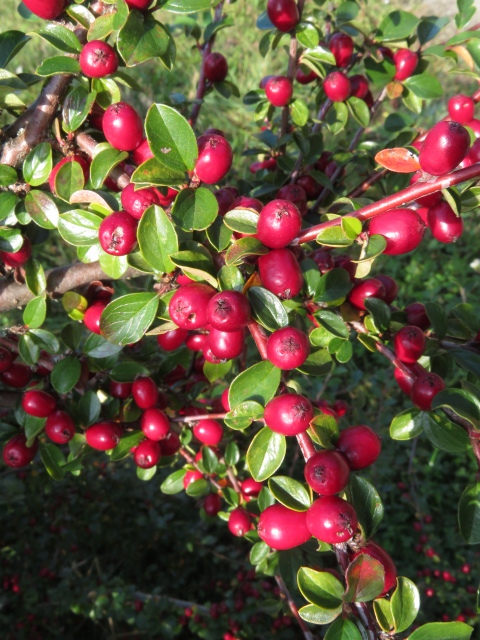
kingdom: Plantae
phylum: Tracheophyta
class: Magnoliopsida
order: Rosales
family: Rosaceae
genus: Cotoneaster
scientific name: Cotoneaster divaricatus
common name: Spreading cotoneaster
